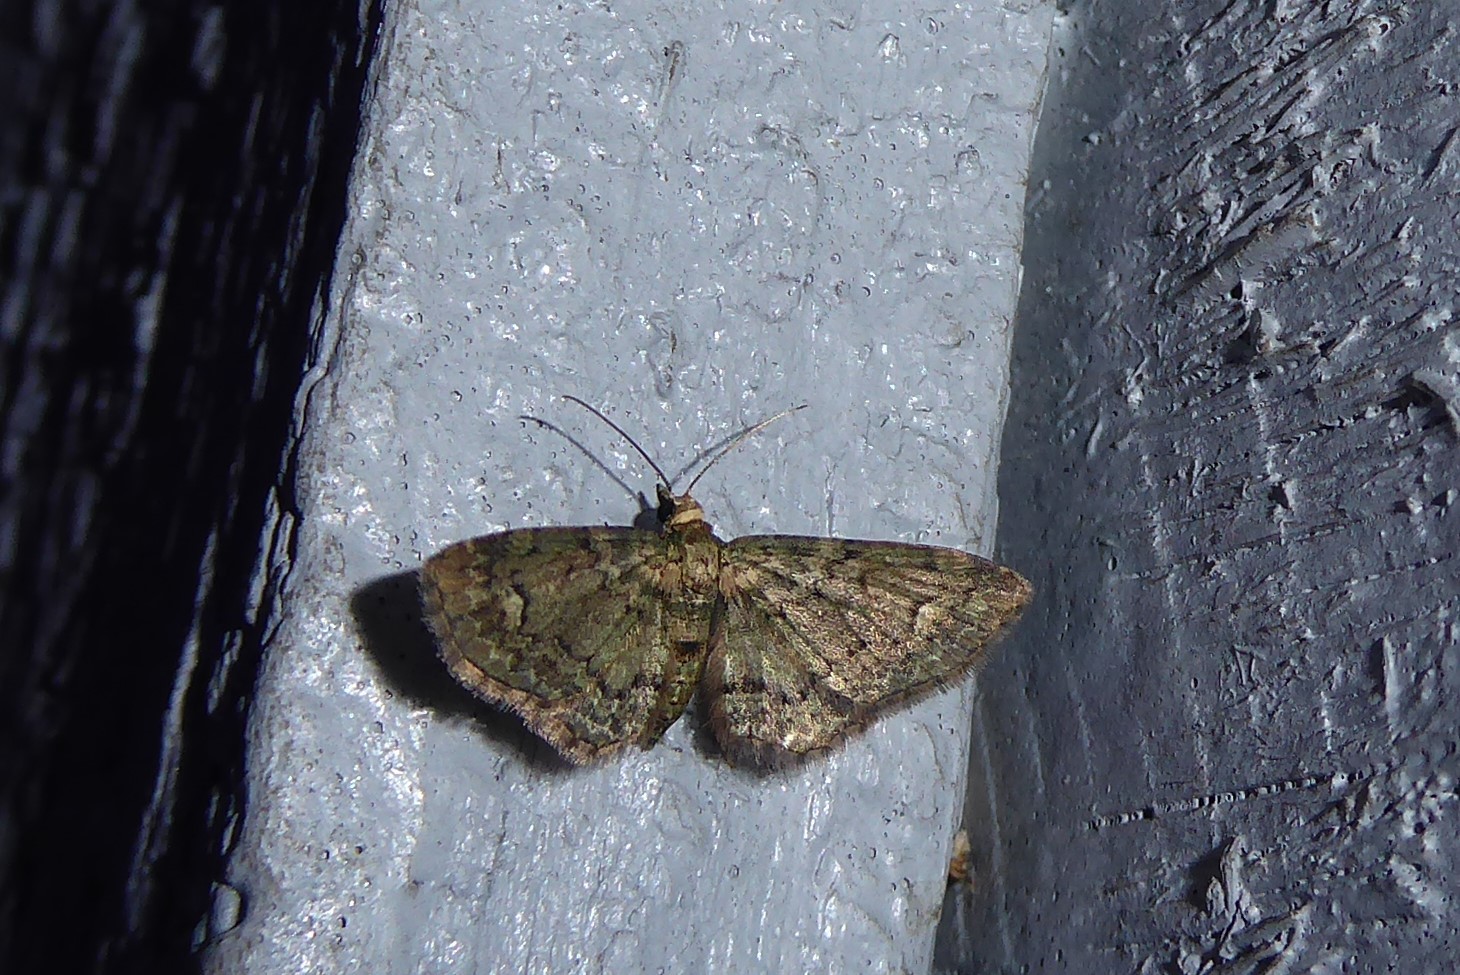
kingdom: Animalia
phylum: Arthropoda
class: Insecta
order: Lepidoptera
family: Geometridae
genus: Pasiphilodes
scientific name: Pasiphilodes testulata
